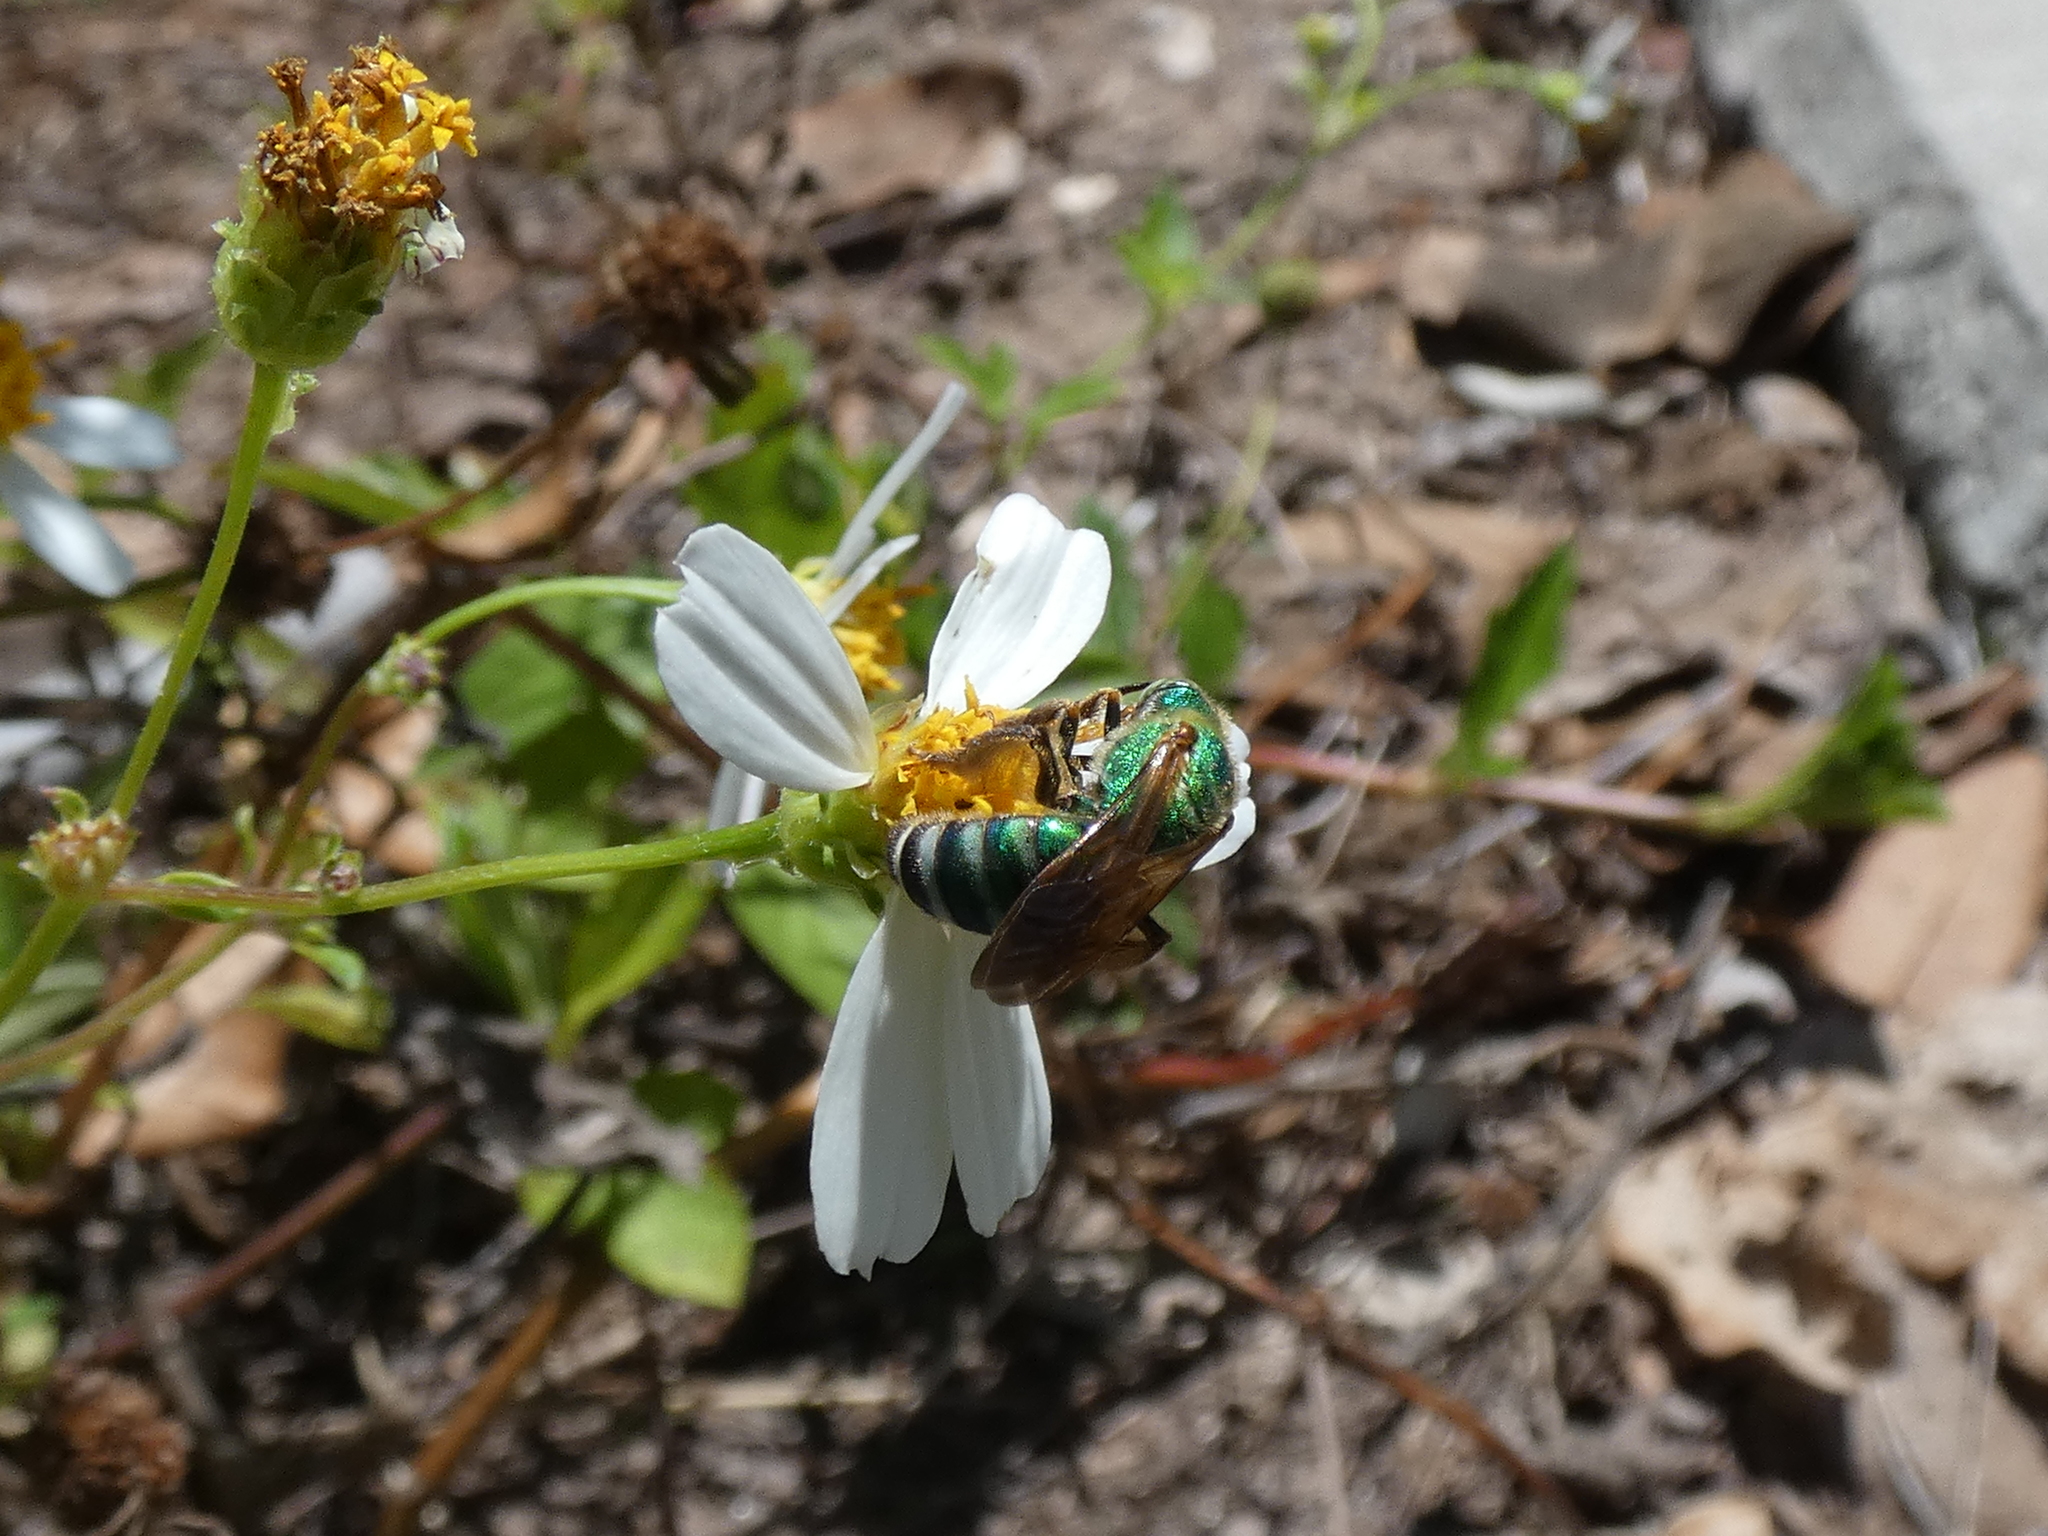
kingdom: Animalia
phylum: Arthropoda
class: Insecta
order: Hymenoptera
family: Halictidae
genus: Agapostemon
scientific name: Agapostemon splendens
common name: Brown-winged striped sweat bee
